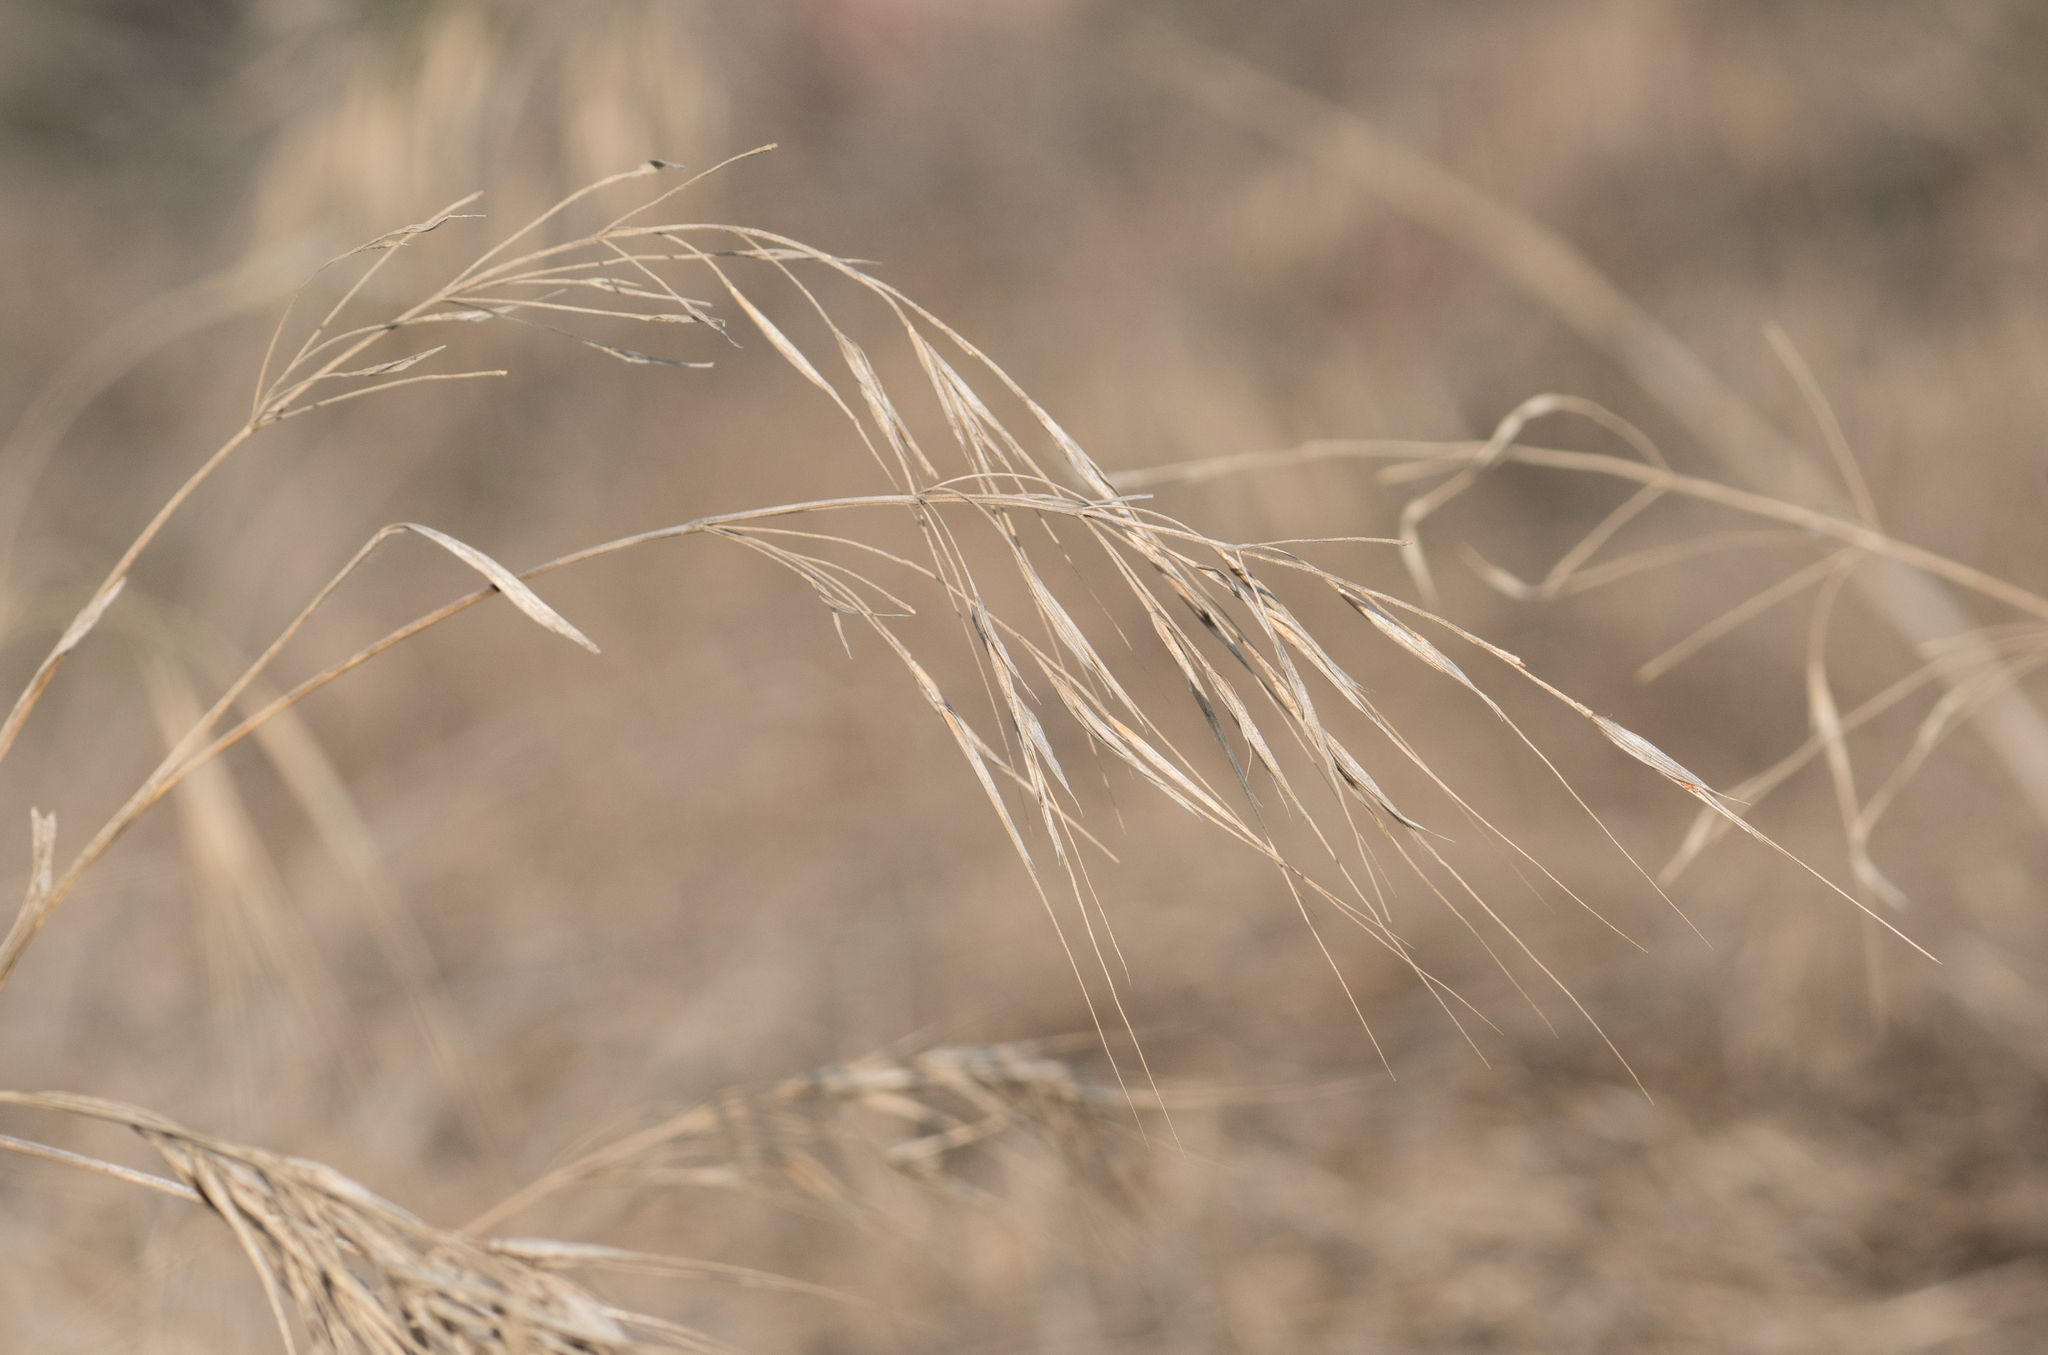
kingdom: Plantae
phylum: Tracheophyta
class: Liliopsida
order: Poales
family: Poaceae
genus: Bromus
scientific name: Bromus diandrus
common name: Ripgut brome
